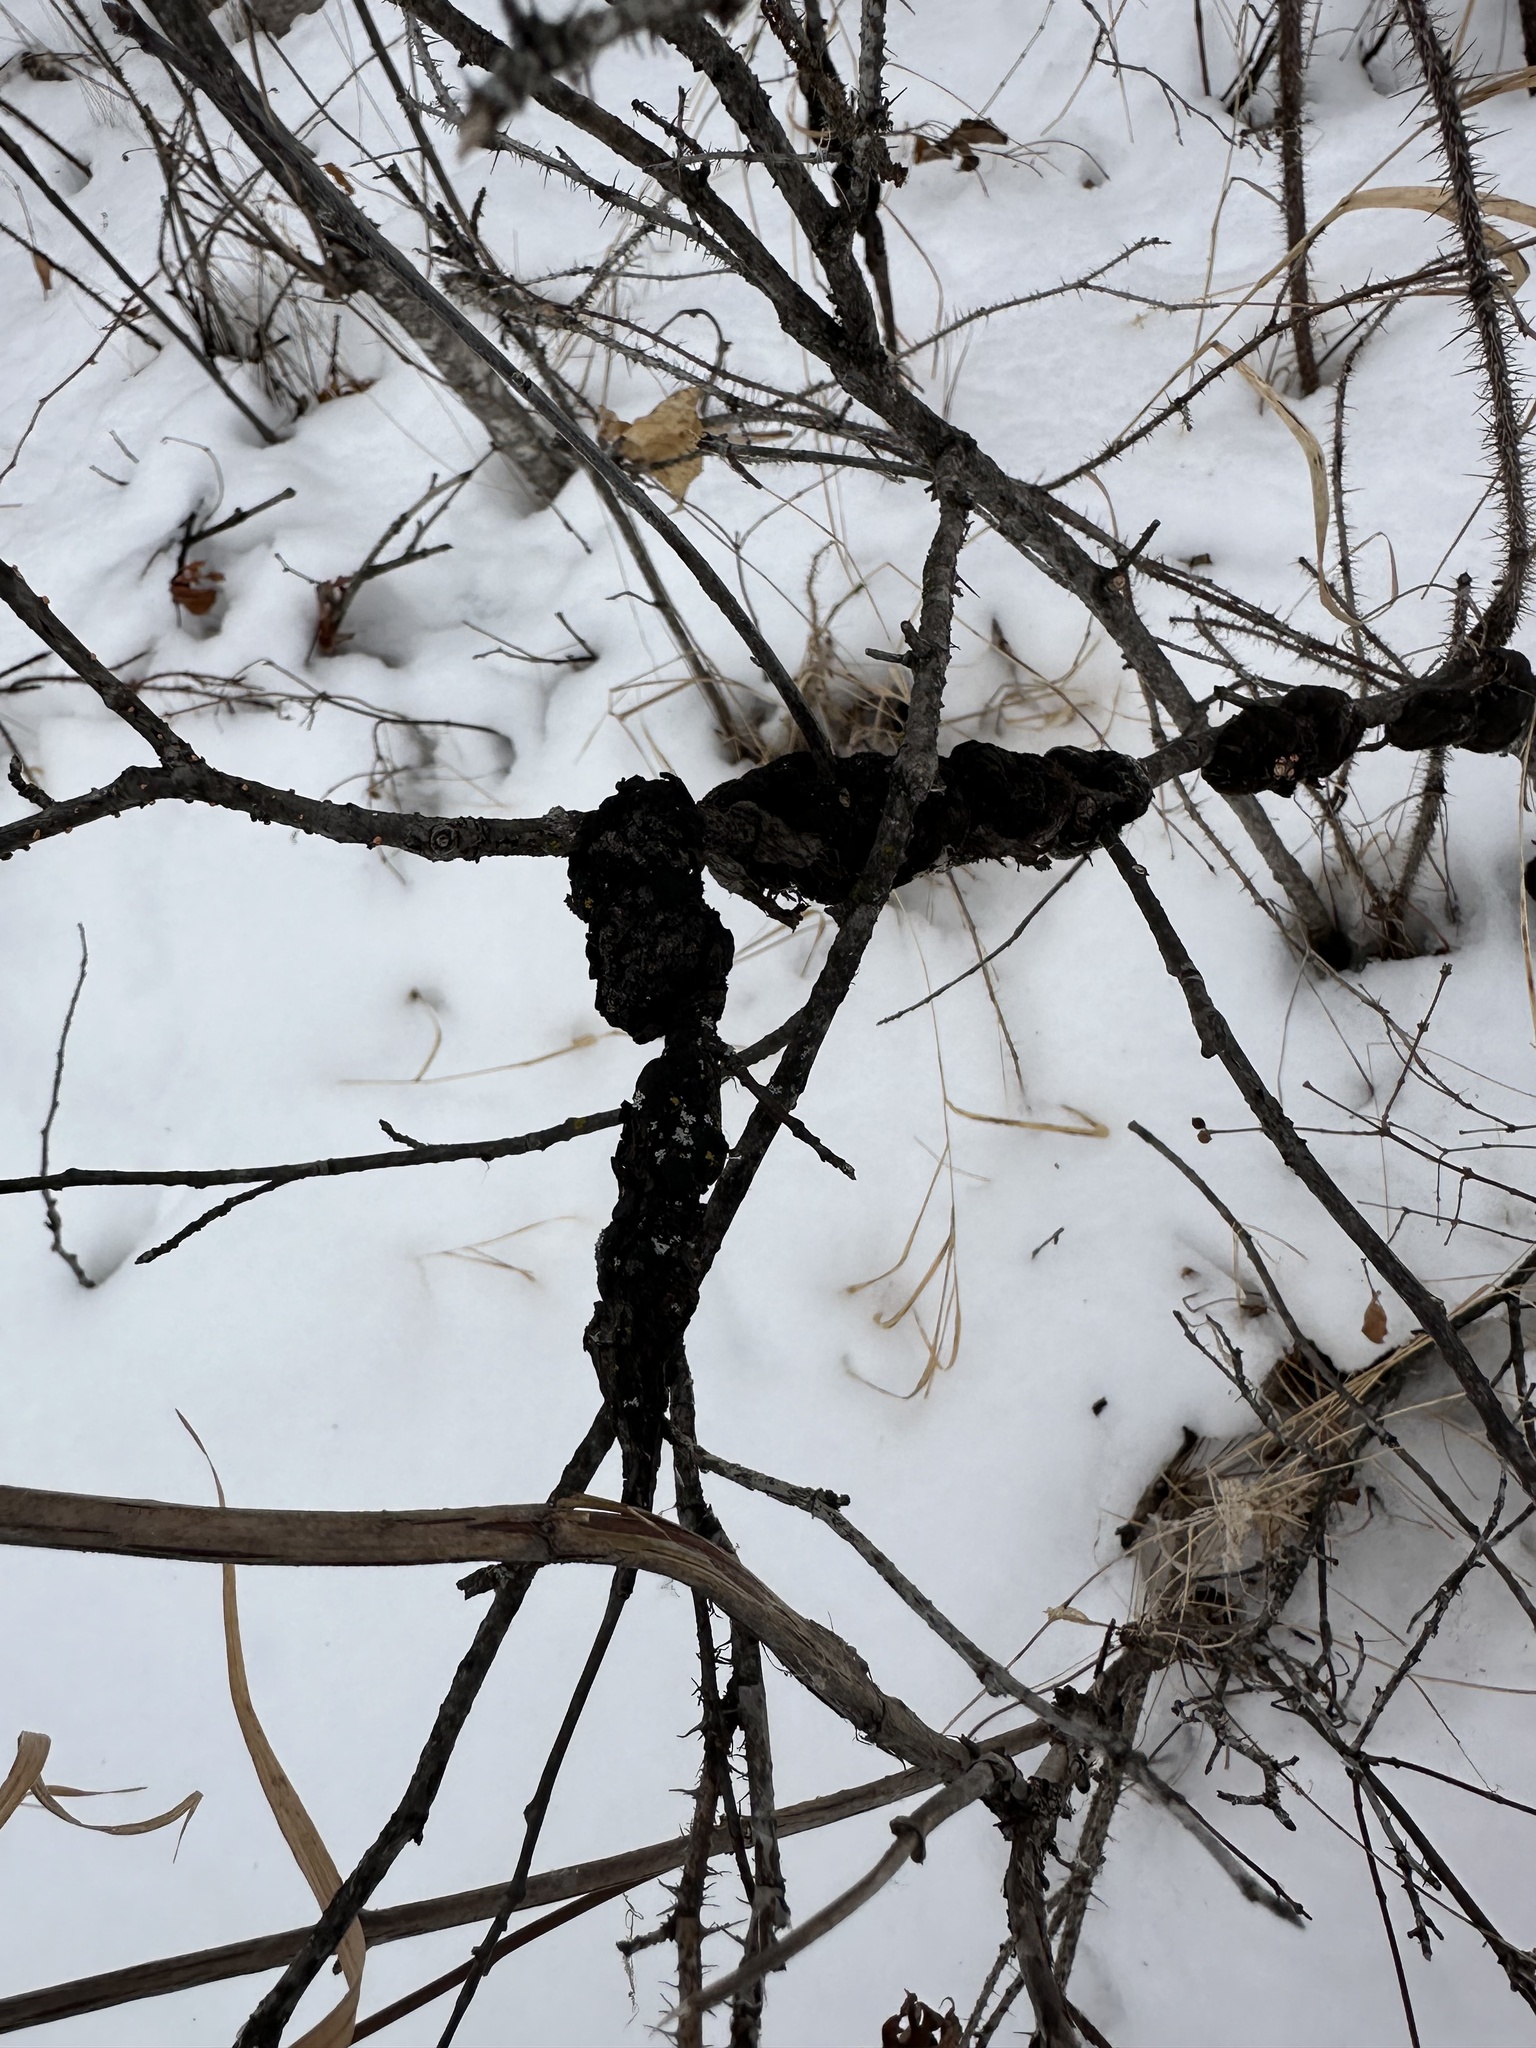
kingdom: Fungi
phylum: Ascomycota
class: Dothideomycetes
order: Venturiales
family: Venturiaceae
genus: Apiosporina
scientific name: Apiosporina morbosa
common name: Black knot
